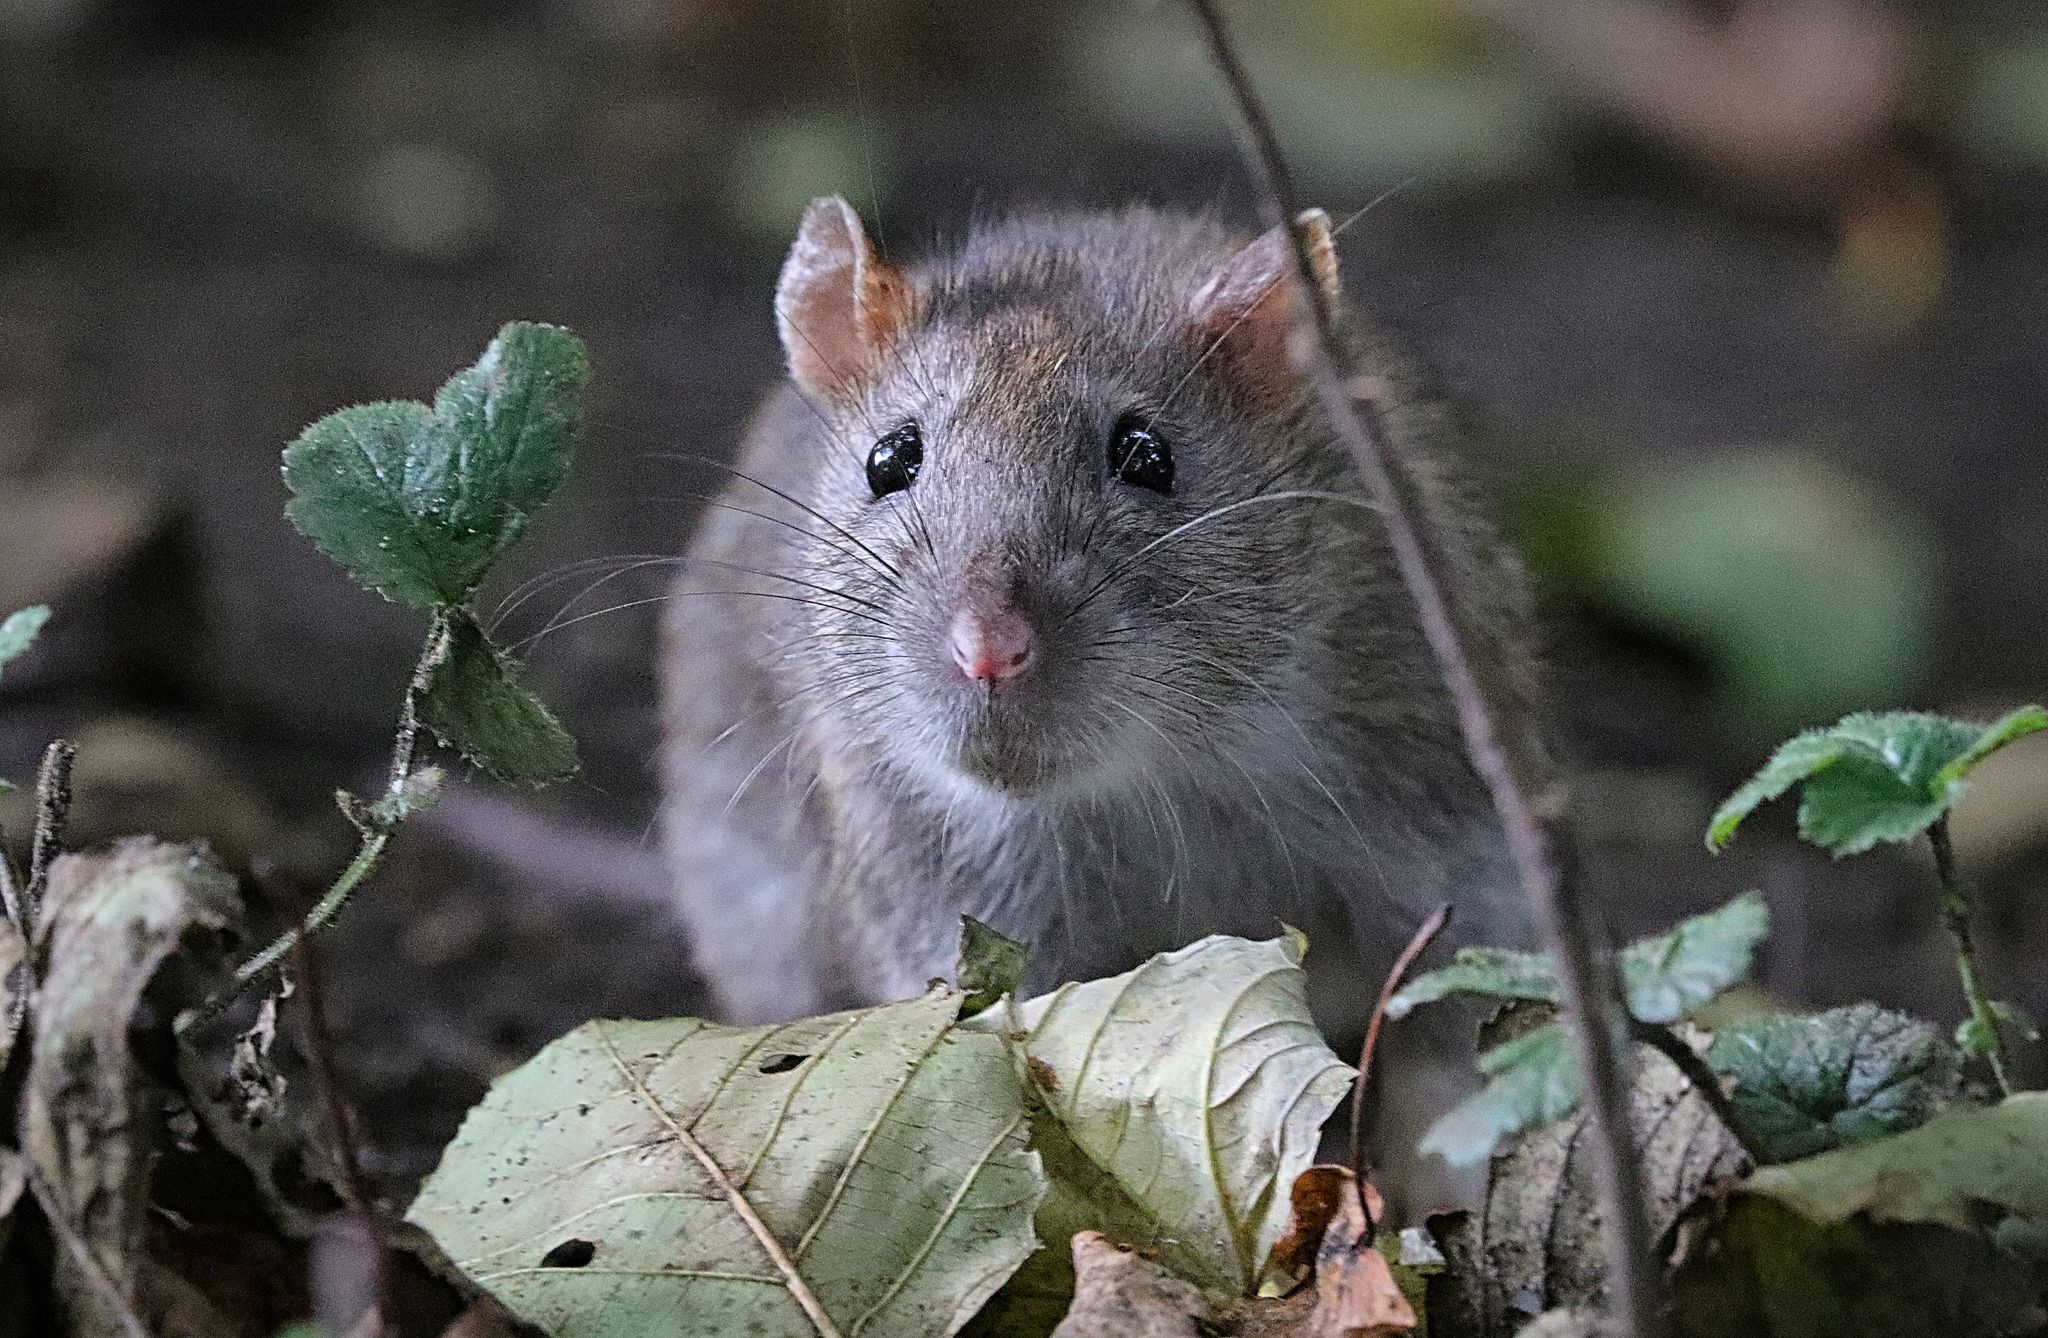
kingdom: Animalia
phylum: Chordata
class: Mammalia
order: Rodentia
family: Muridae
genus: Rattus
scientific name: Rattus norvegicus
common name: Brown rat
